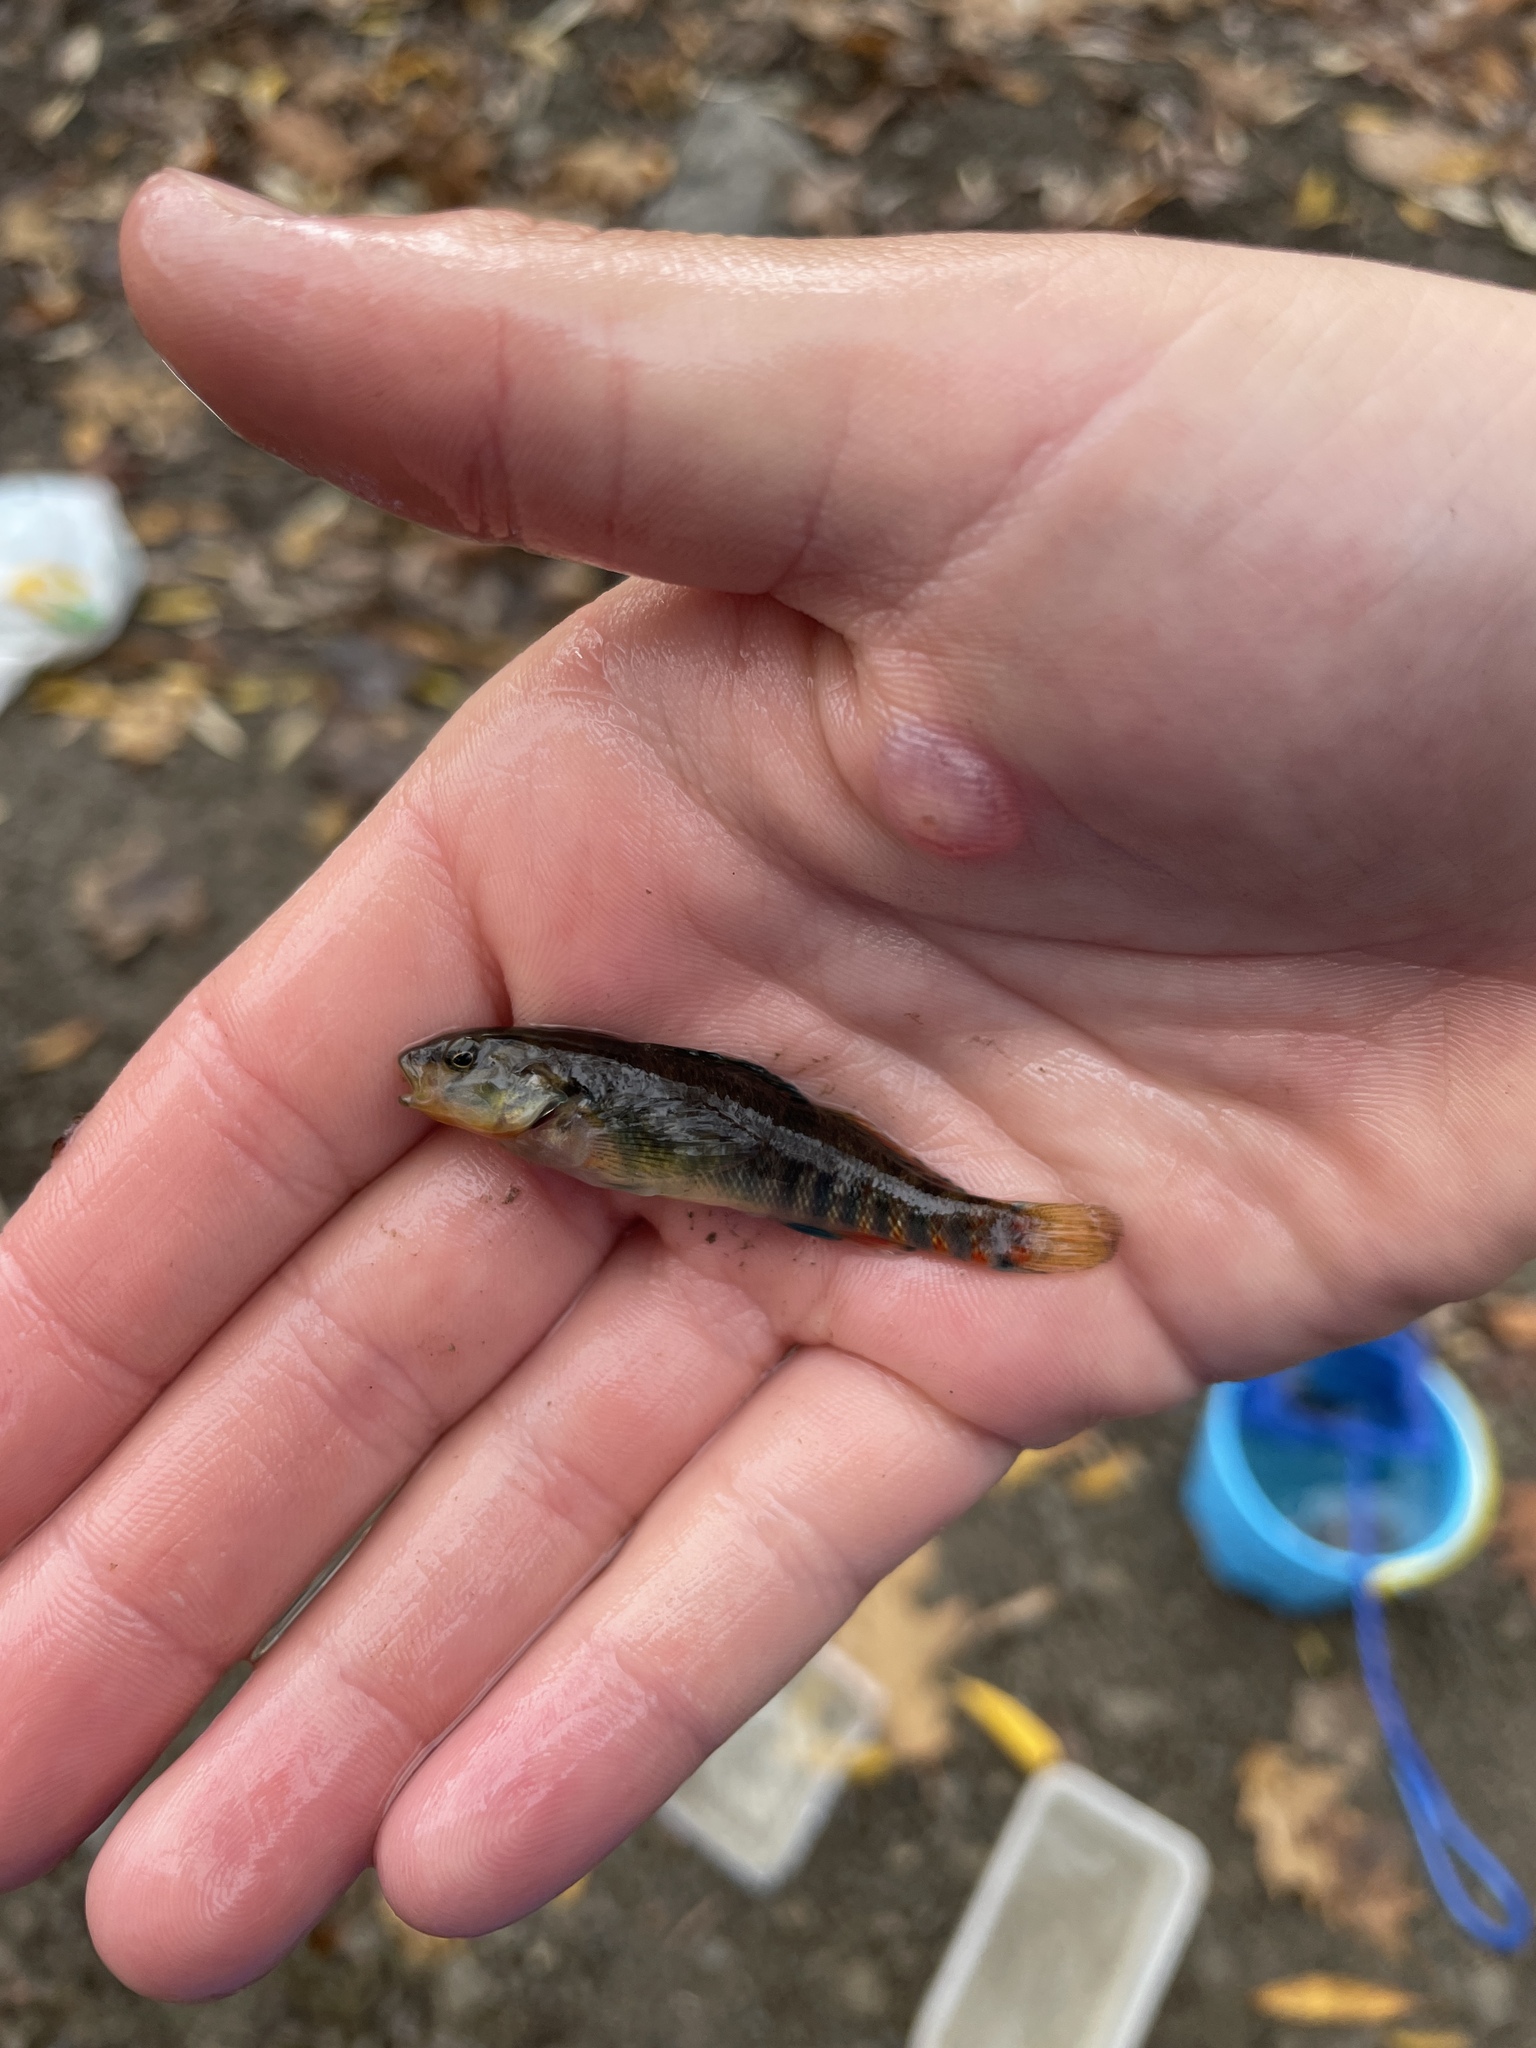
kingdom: Animalia
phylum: Chordata
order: Perciformes
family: Percidae
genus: Etheostoma
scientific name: Etheostoma caeruleum
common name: Rainbow darter
